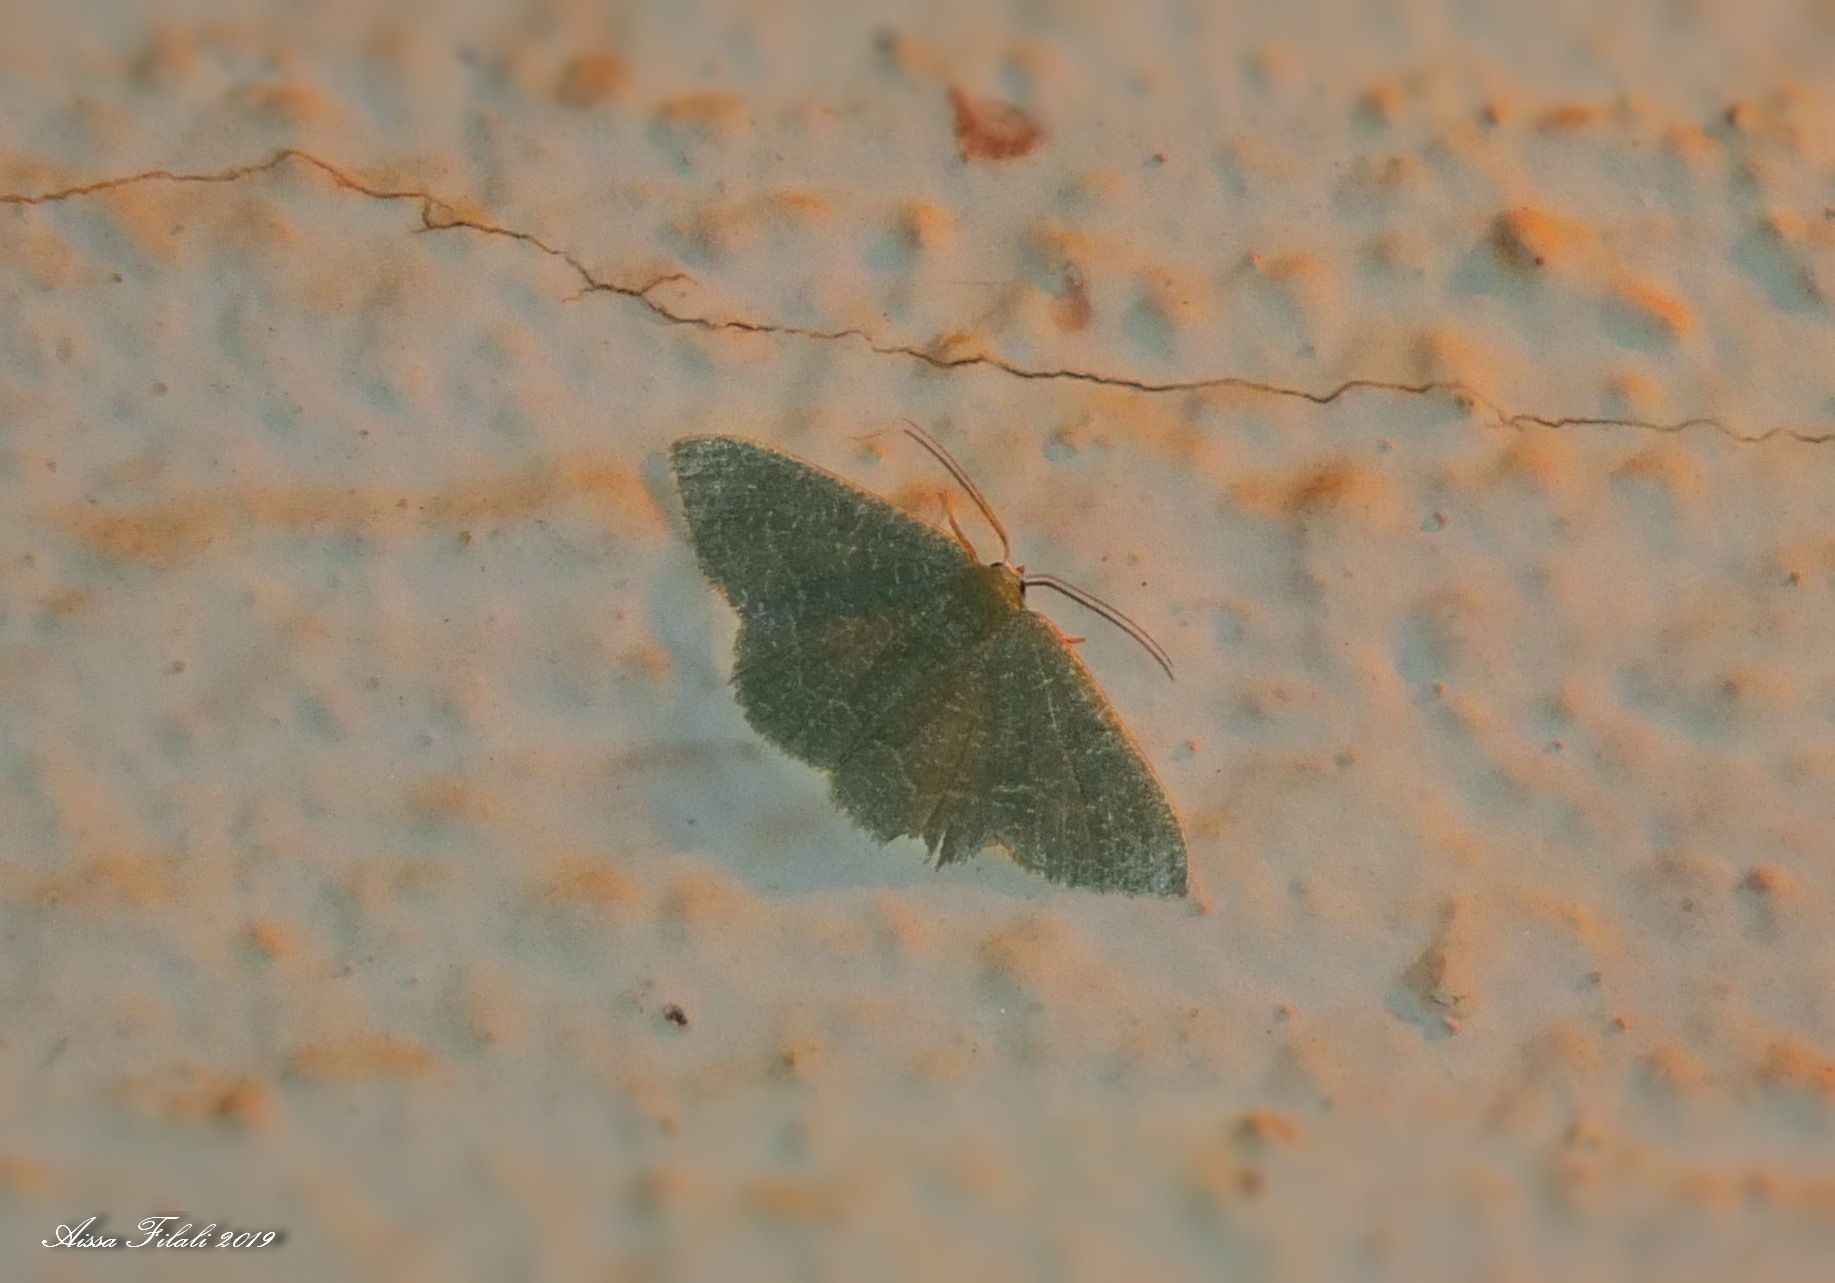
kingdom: Animalia
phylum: Arthropoda
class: Insecta
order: Lepidoptera
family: Geometridae
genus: Chlorissa
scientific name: Chlorissa etruscaria
